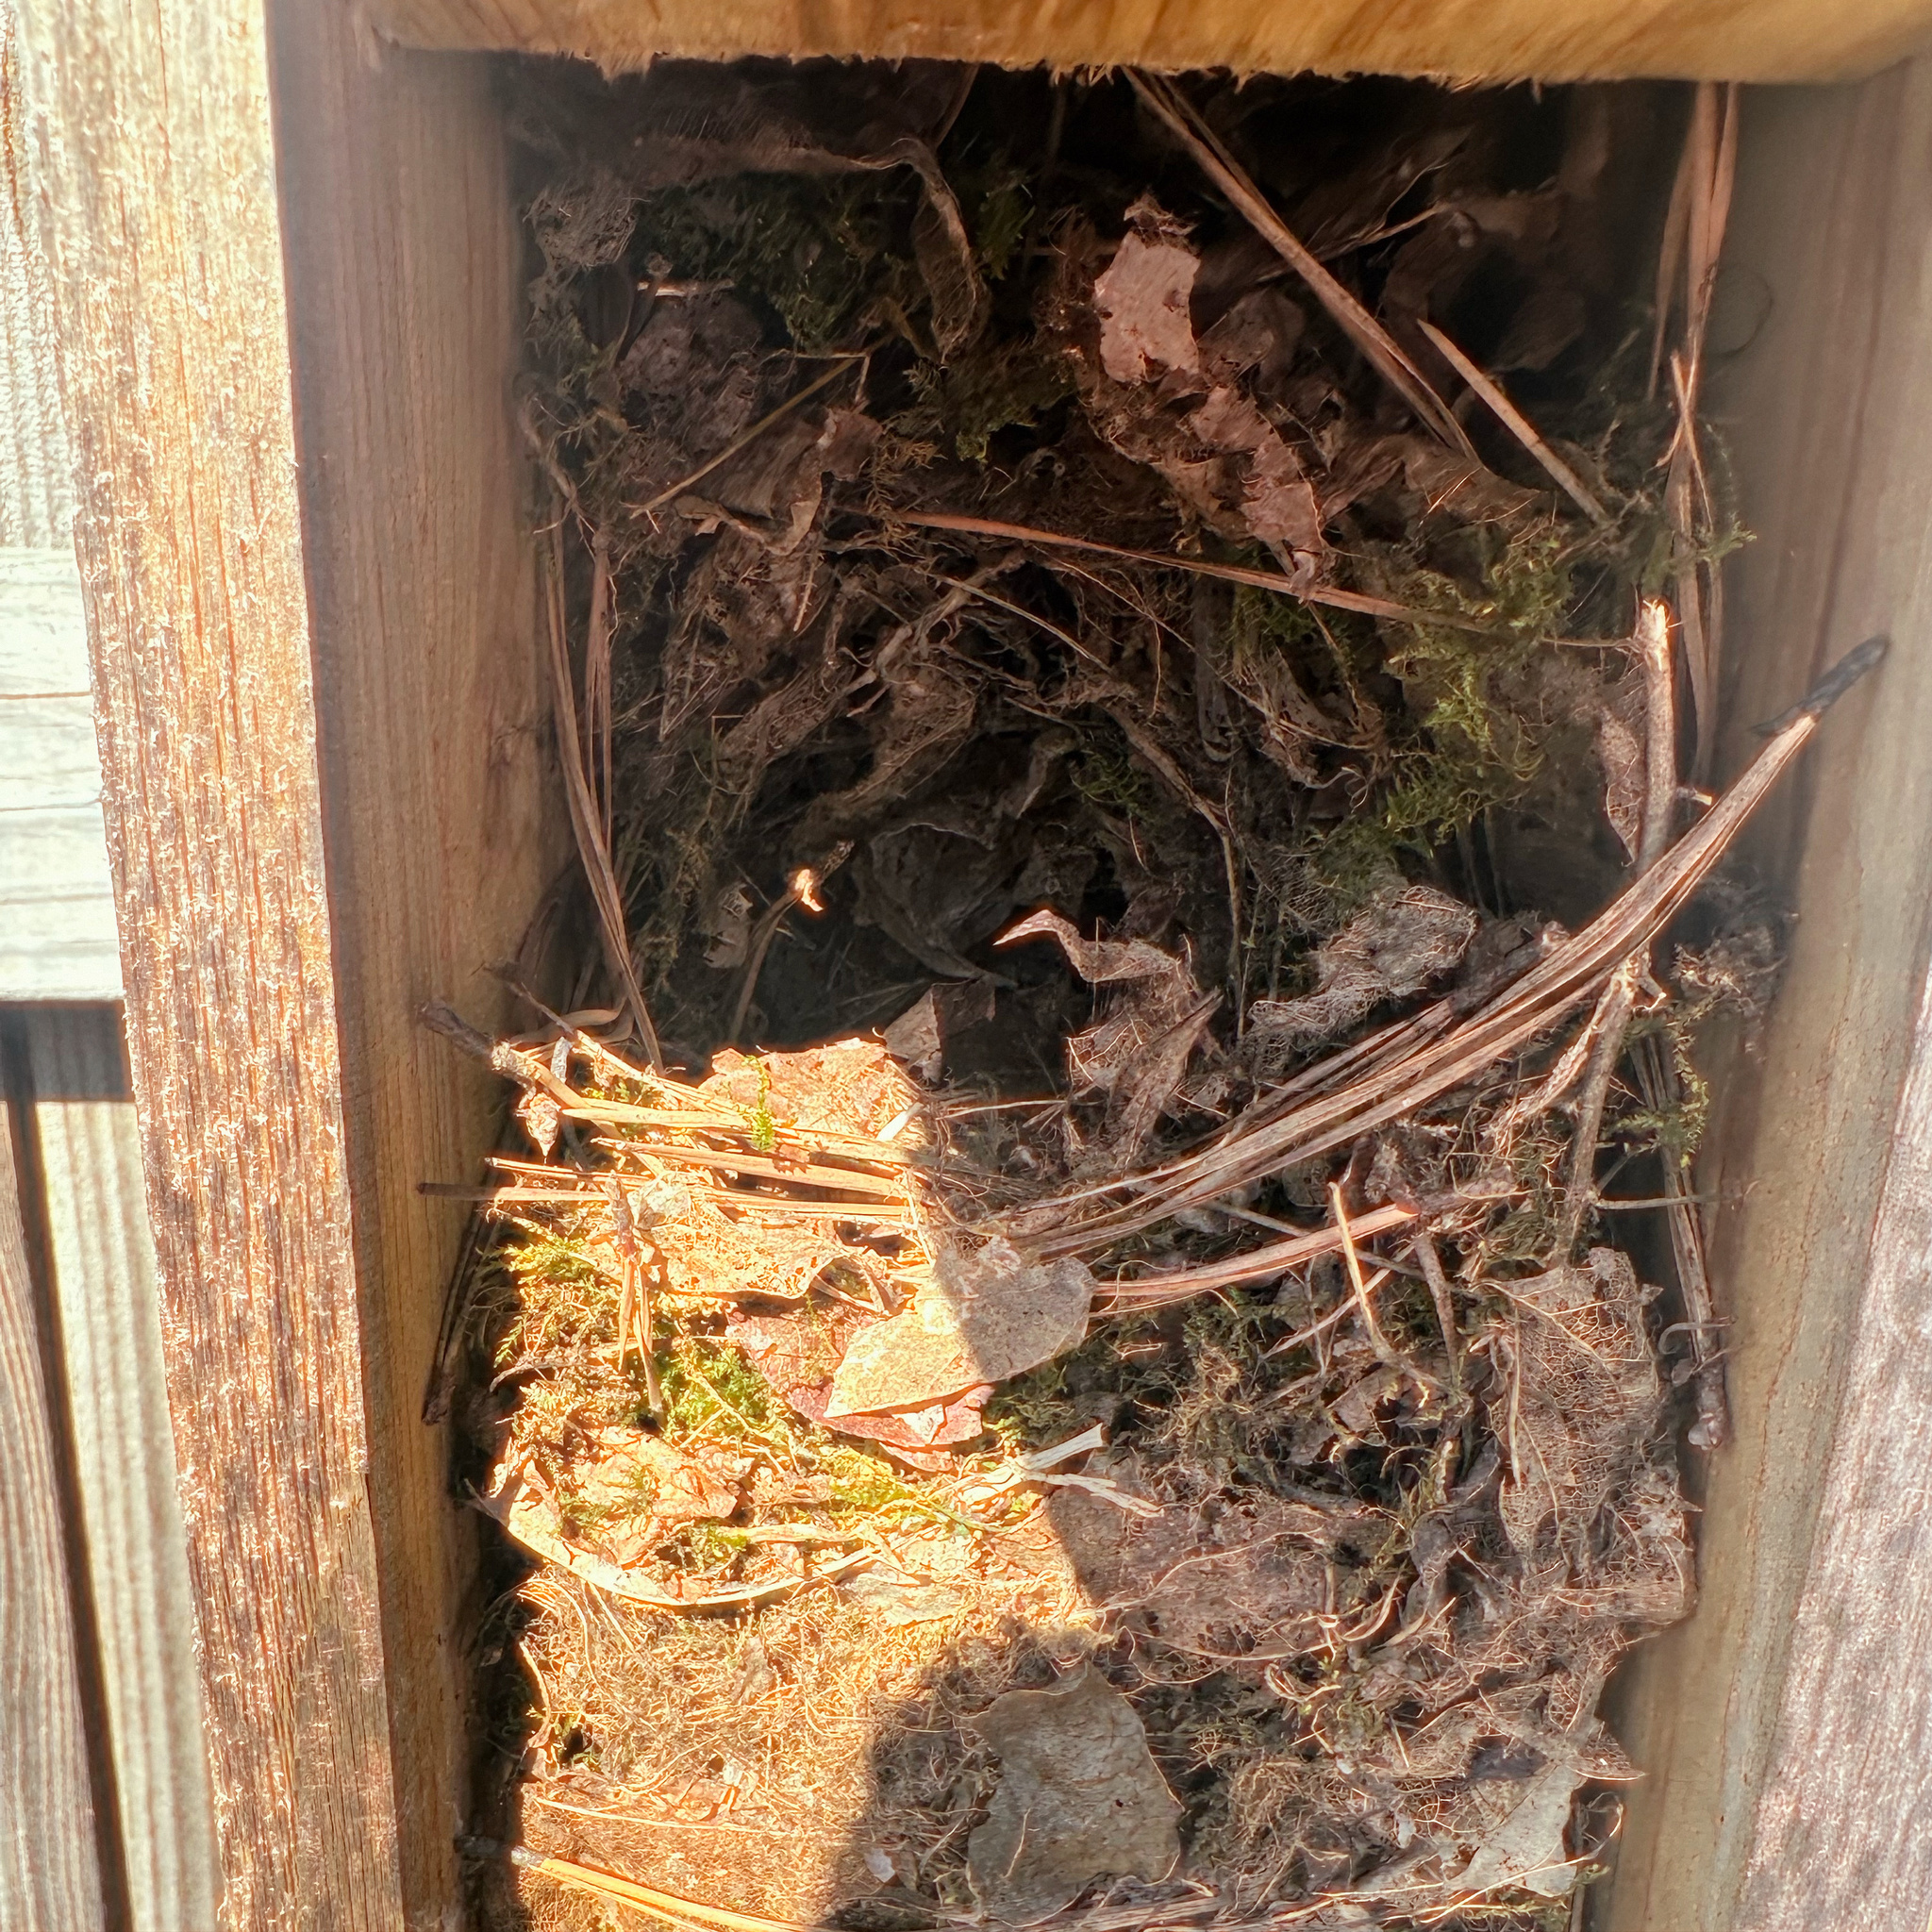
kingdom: Animalia
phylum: Chordata
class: Aves
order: Passeriformes
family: Troglodytidae
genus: Thryothorus
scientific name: Thryothorus ludovicianus
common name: Carolina wren
